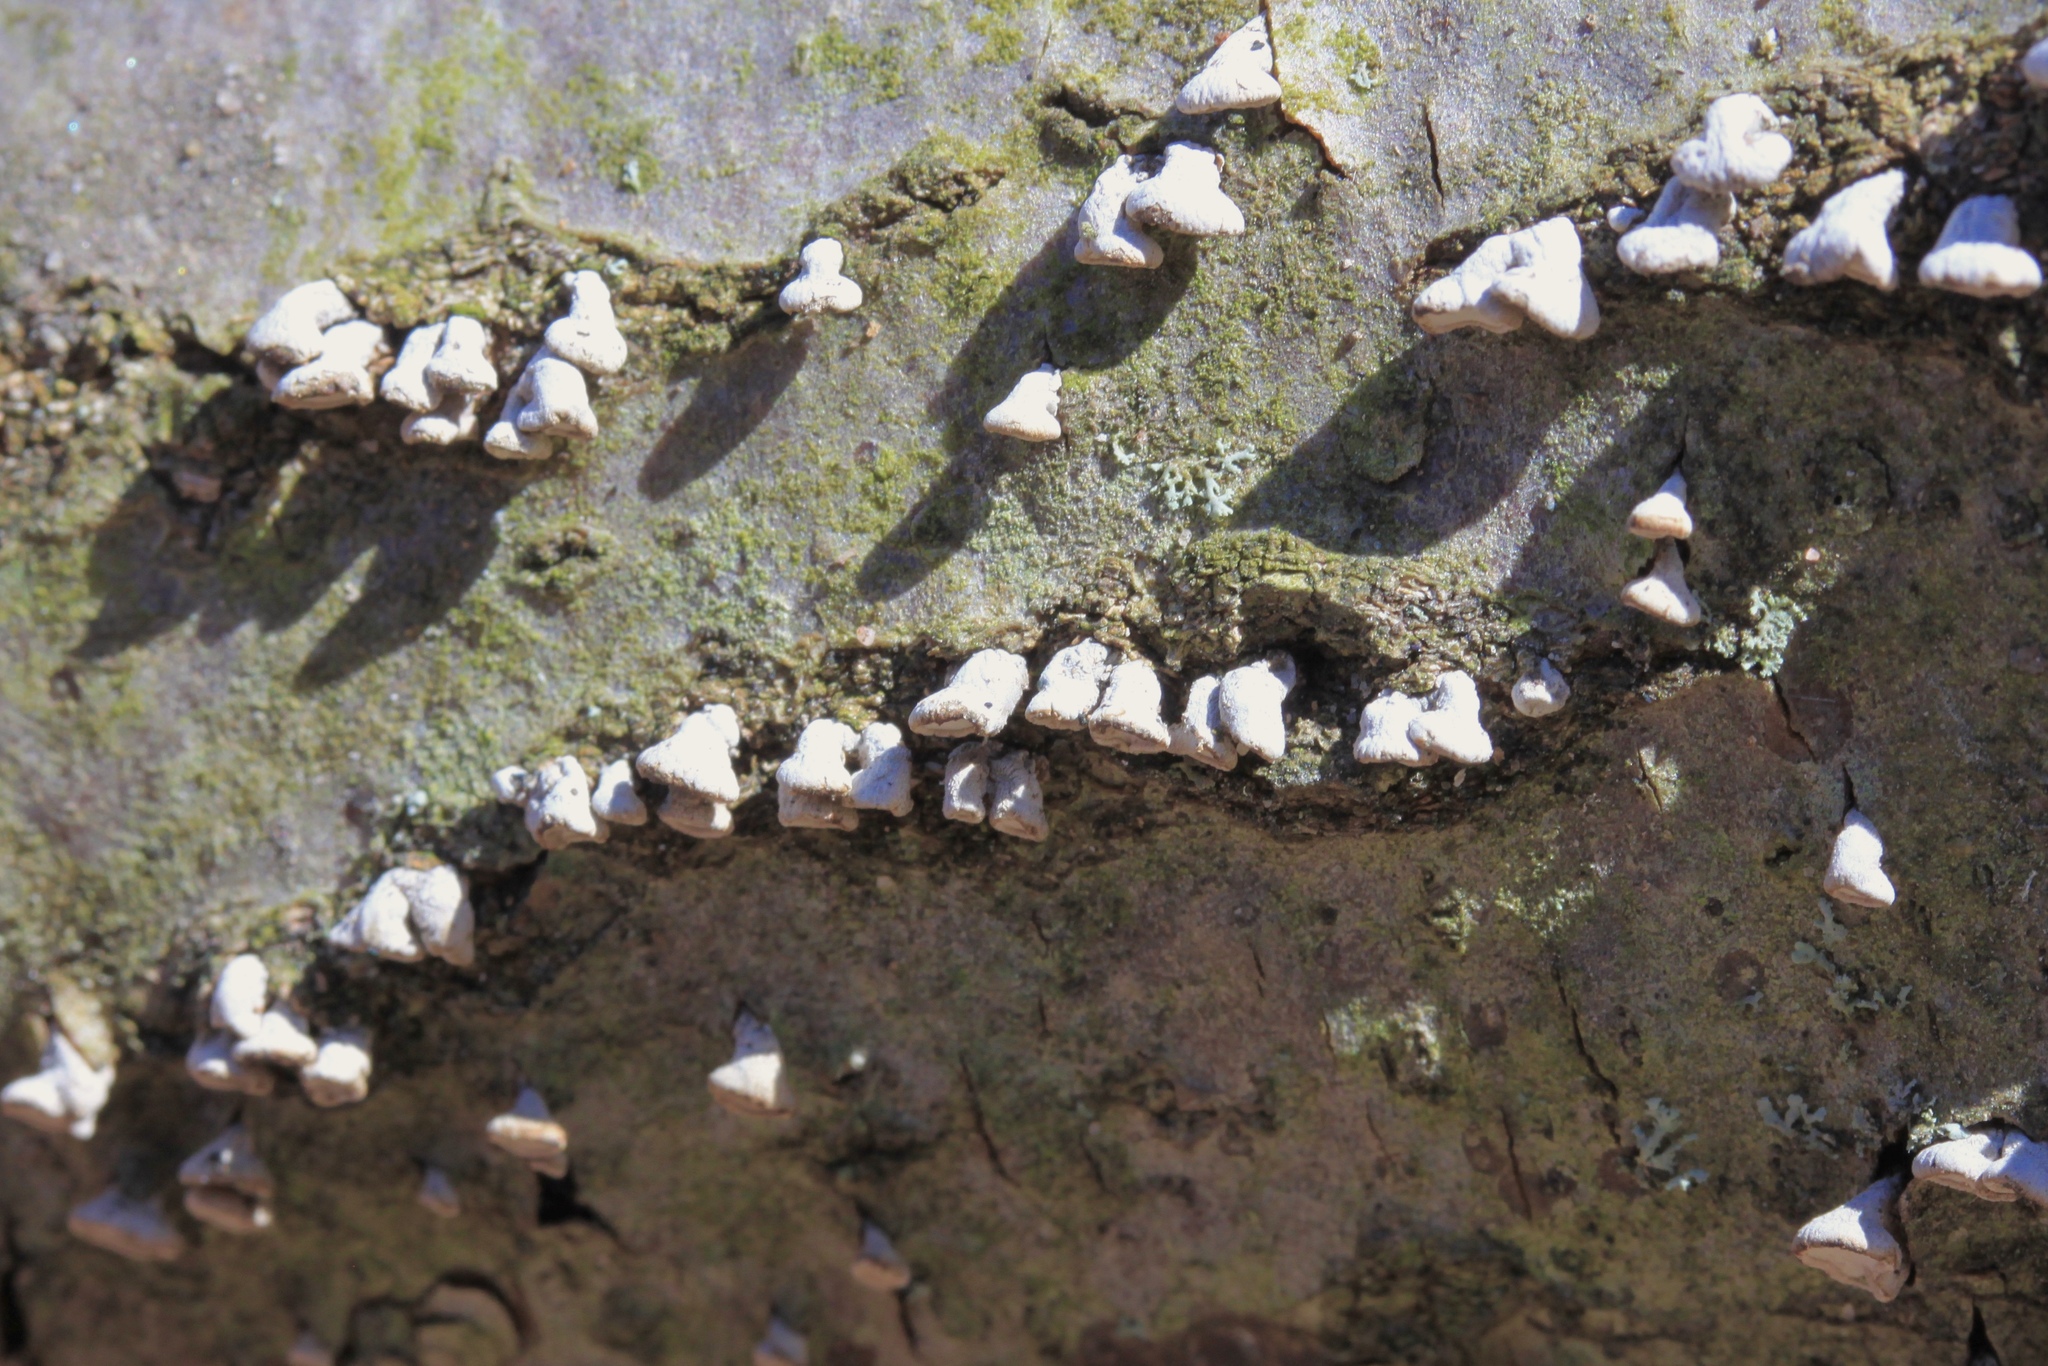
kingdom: Fungi
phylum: Basidiomycota
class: Agaricomycetes
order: Agaricales
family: Schizophyllaceae
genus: Porodisculus
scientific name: Porodisculus pendulus
